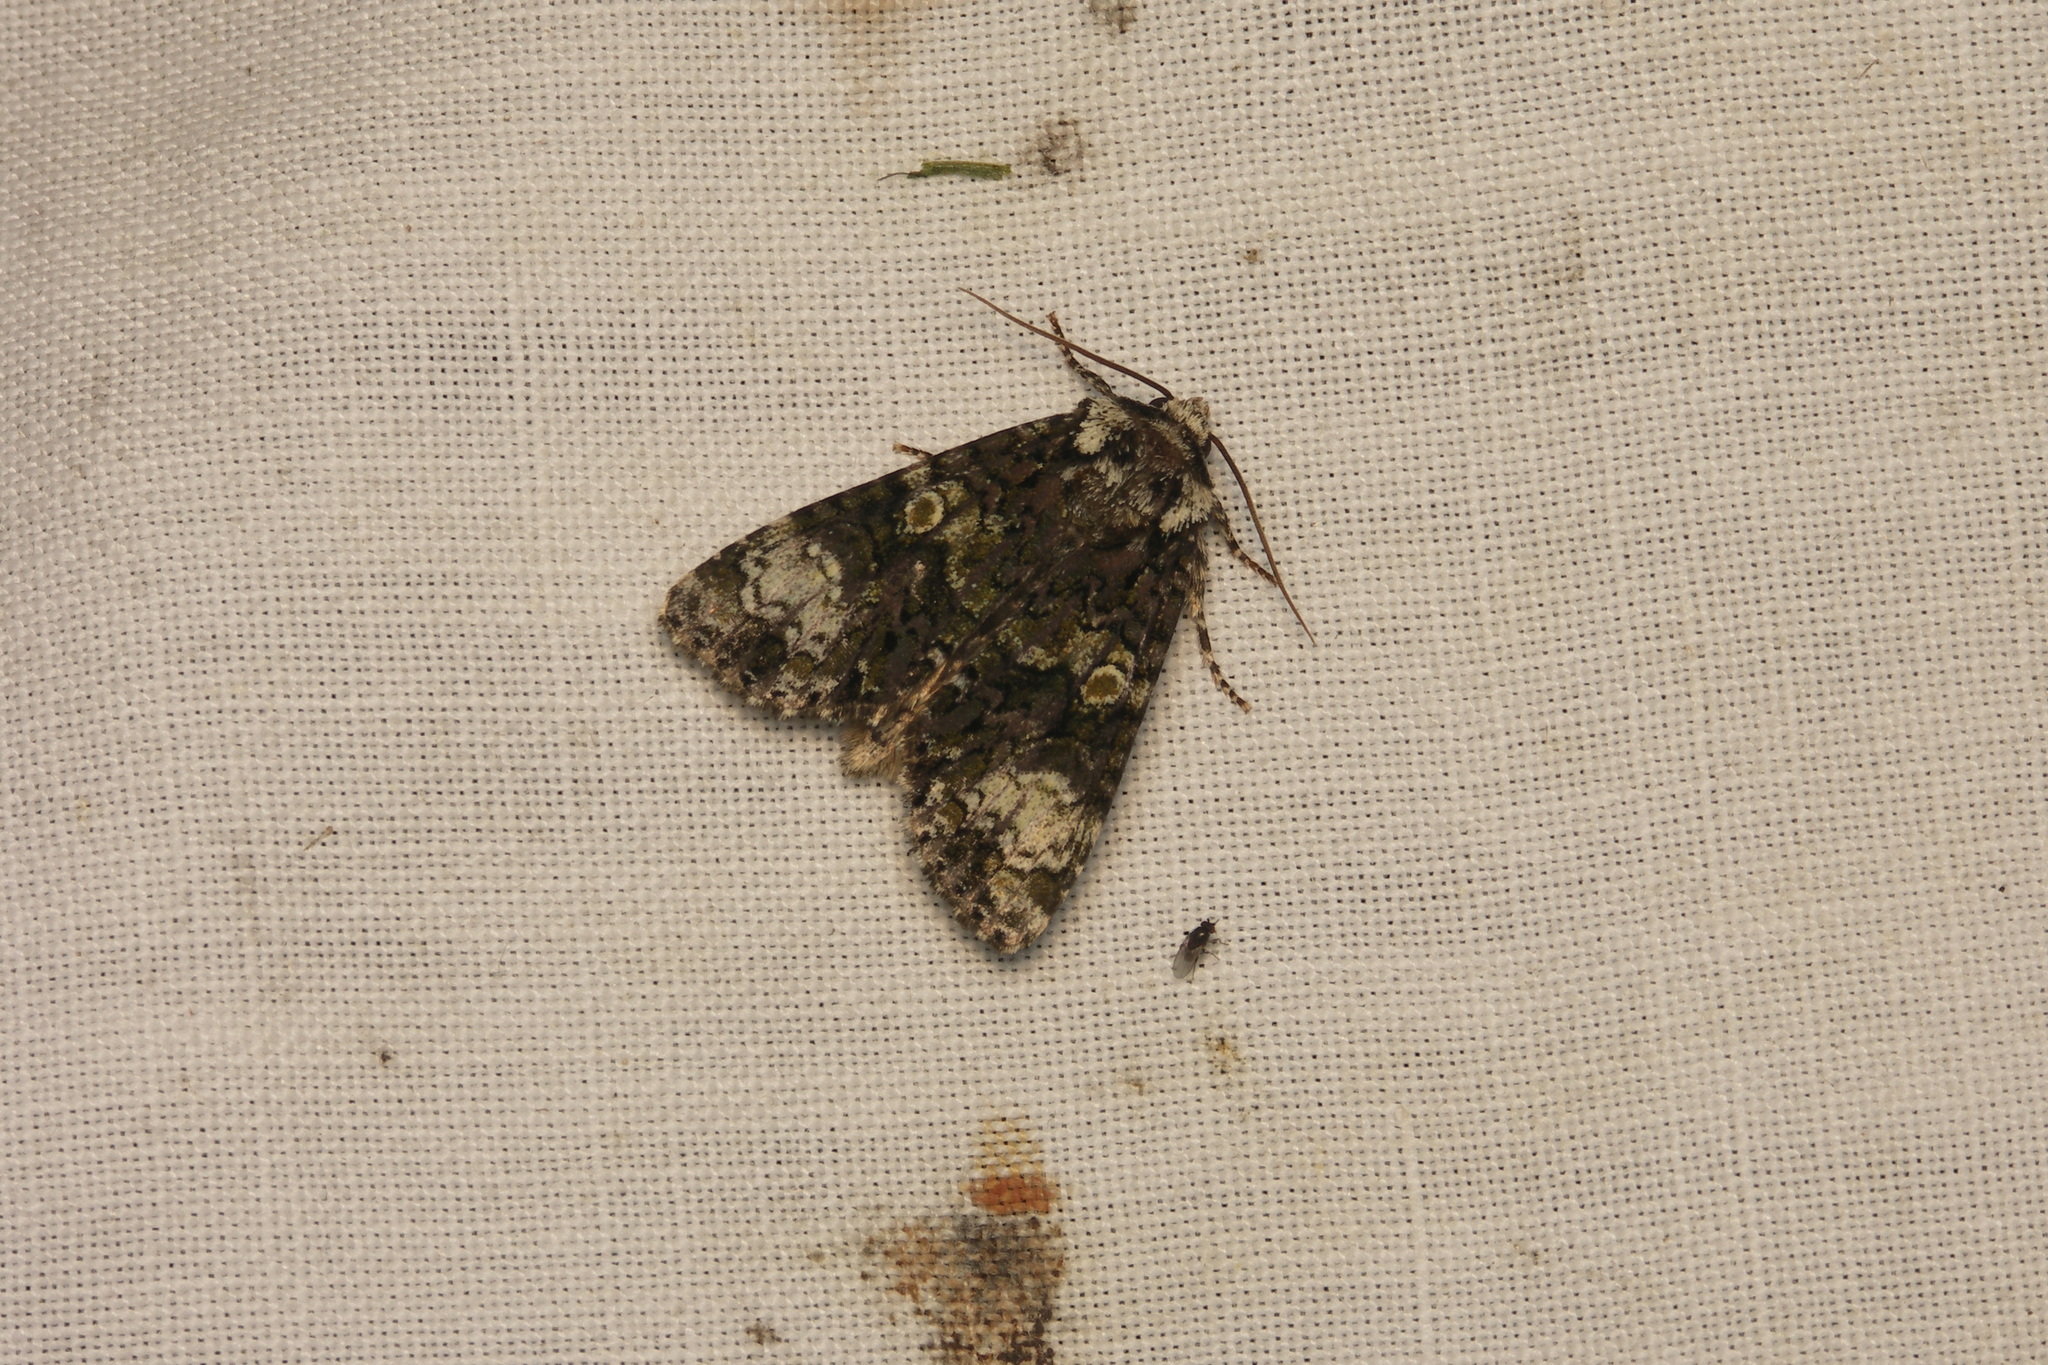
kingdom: Animalia
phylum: Arthropoda
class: Insecta
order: Lepidoptera
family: Noctuidae
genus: Craniophora
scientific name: Craniophora ligustri
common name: Coronet
